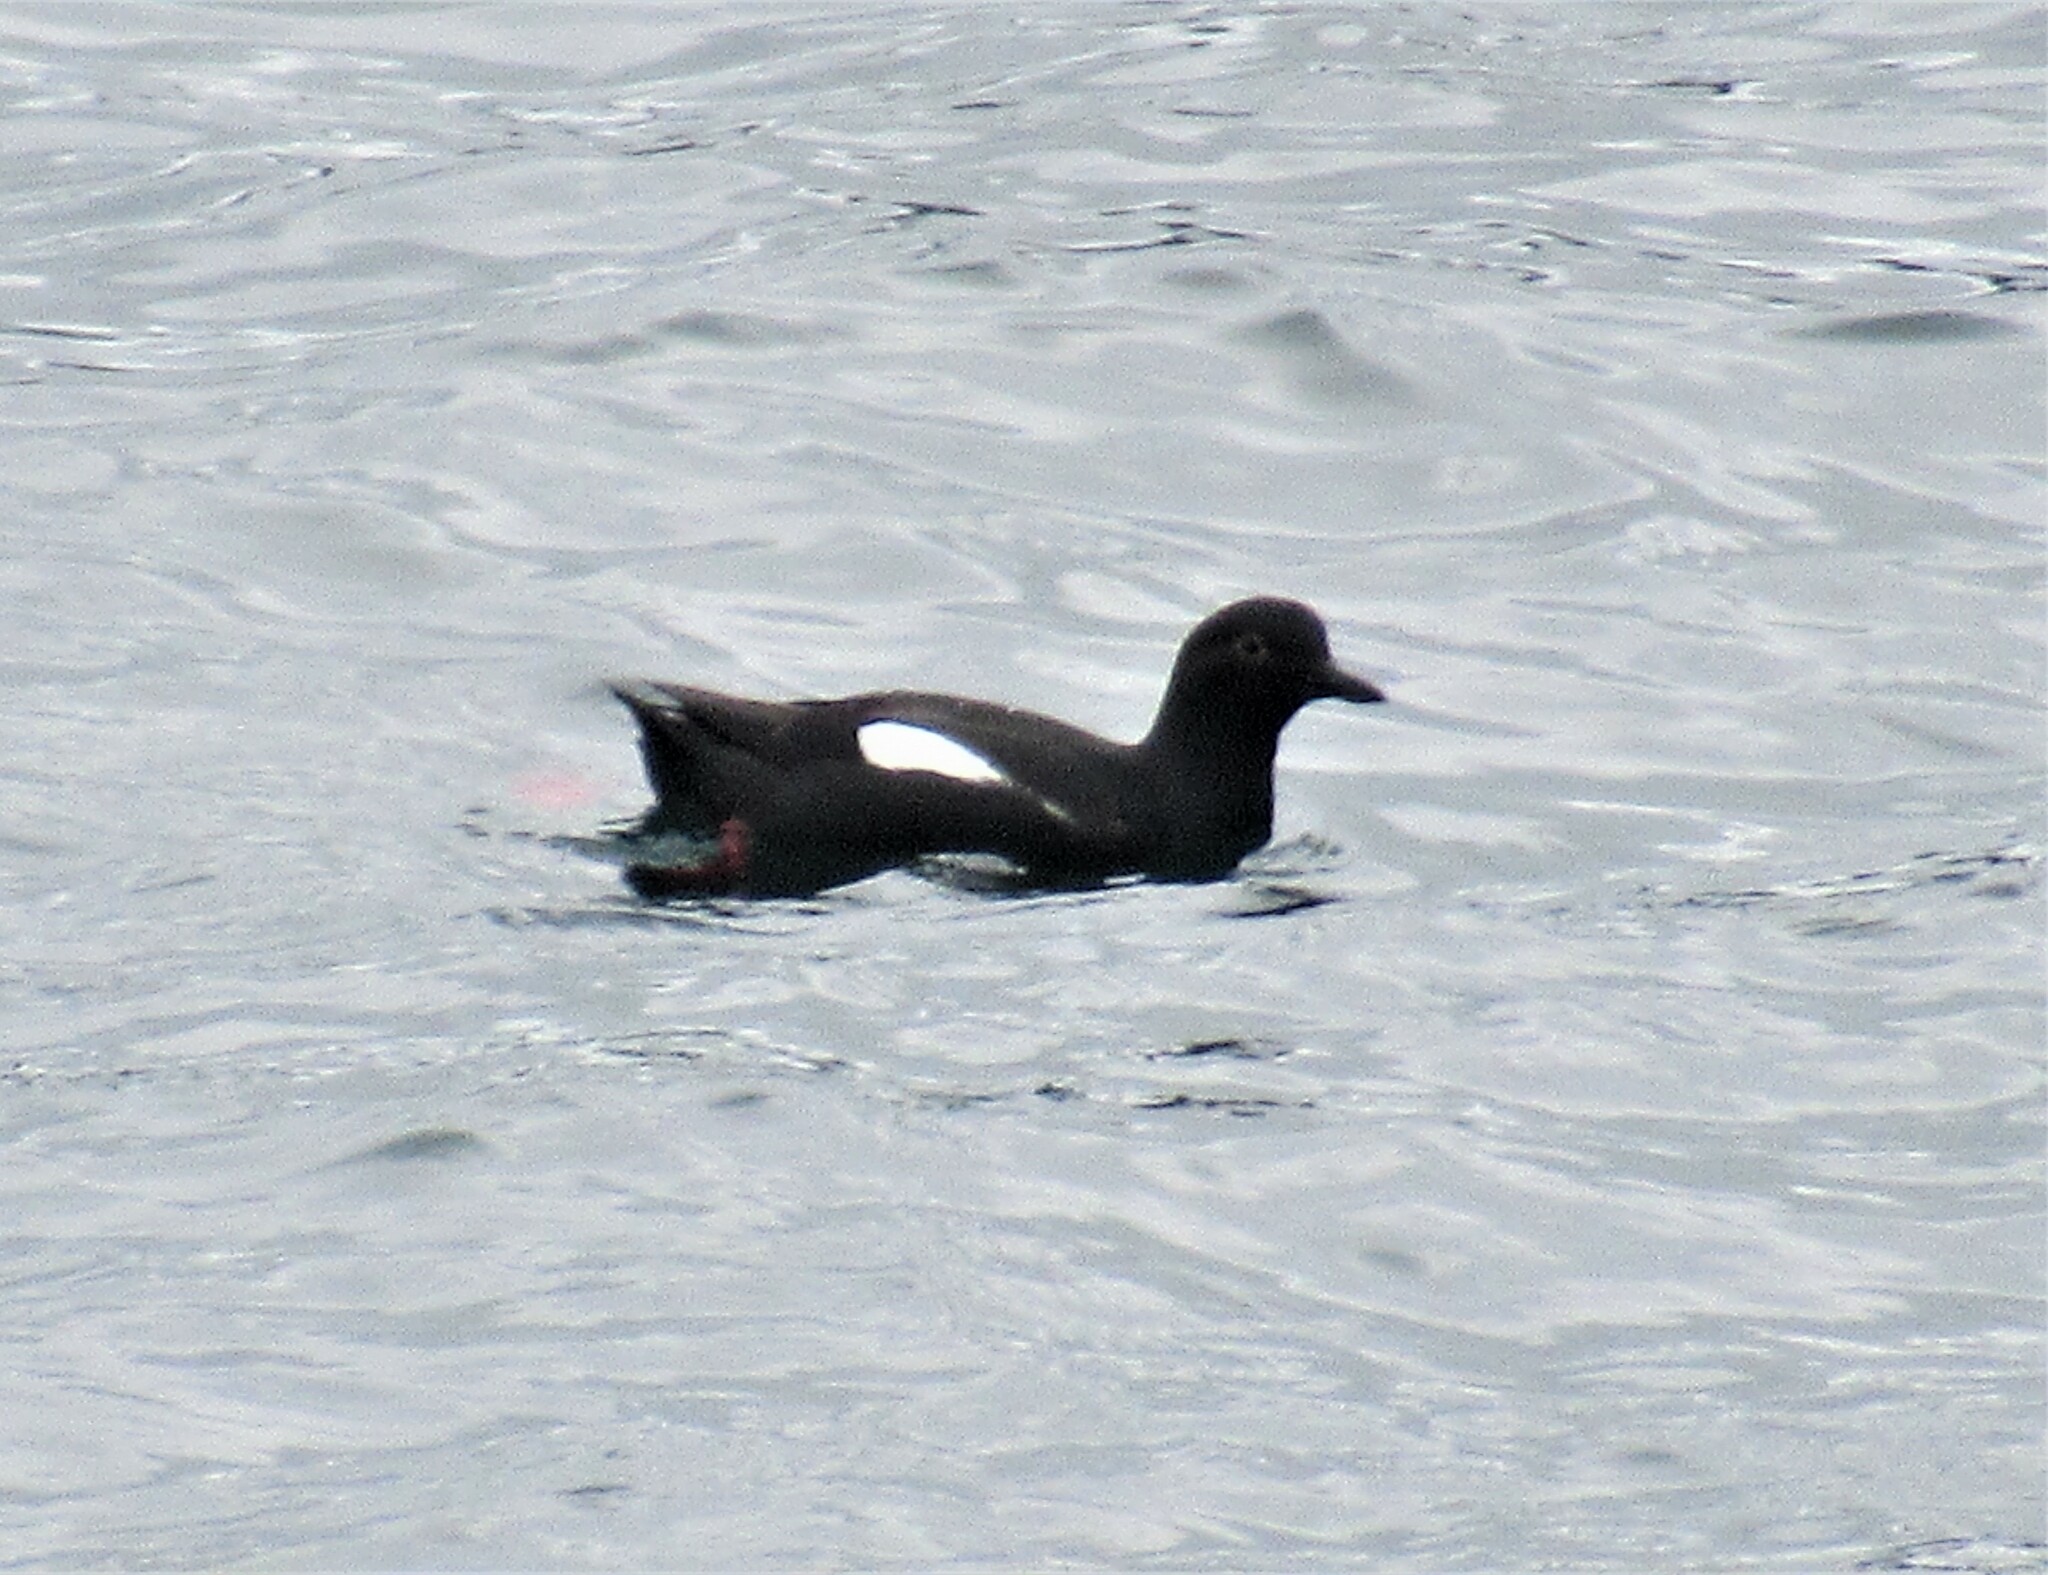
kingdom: Animalia
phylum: Chordata
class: Aves
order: Charadriiformes
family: Alcidae
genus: Cepphus
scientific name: Cepphus columba
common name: Pigeon guillemot
